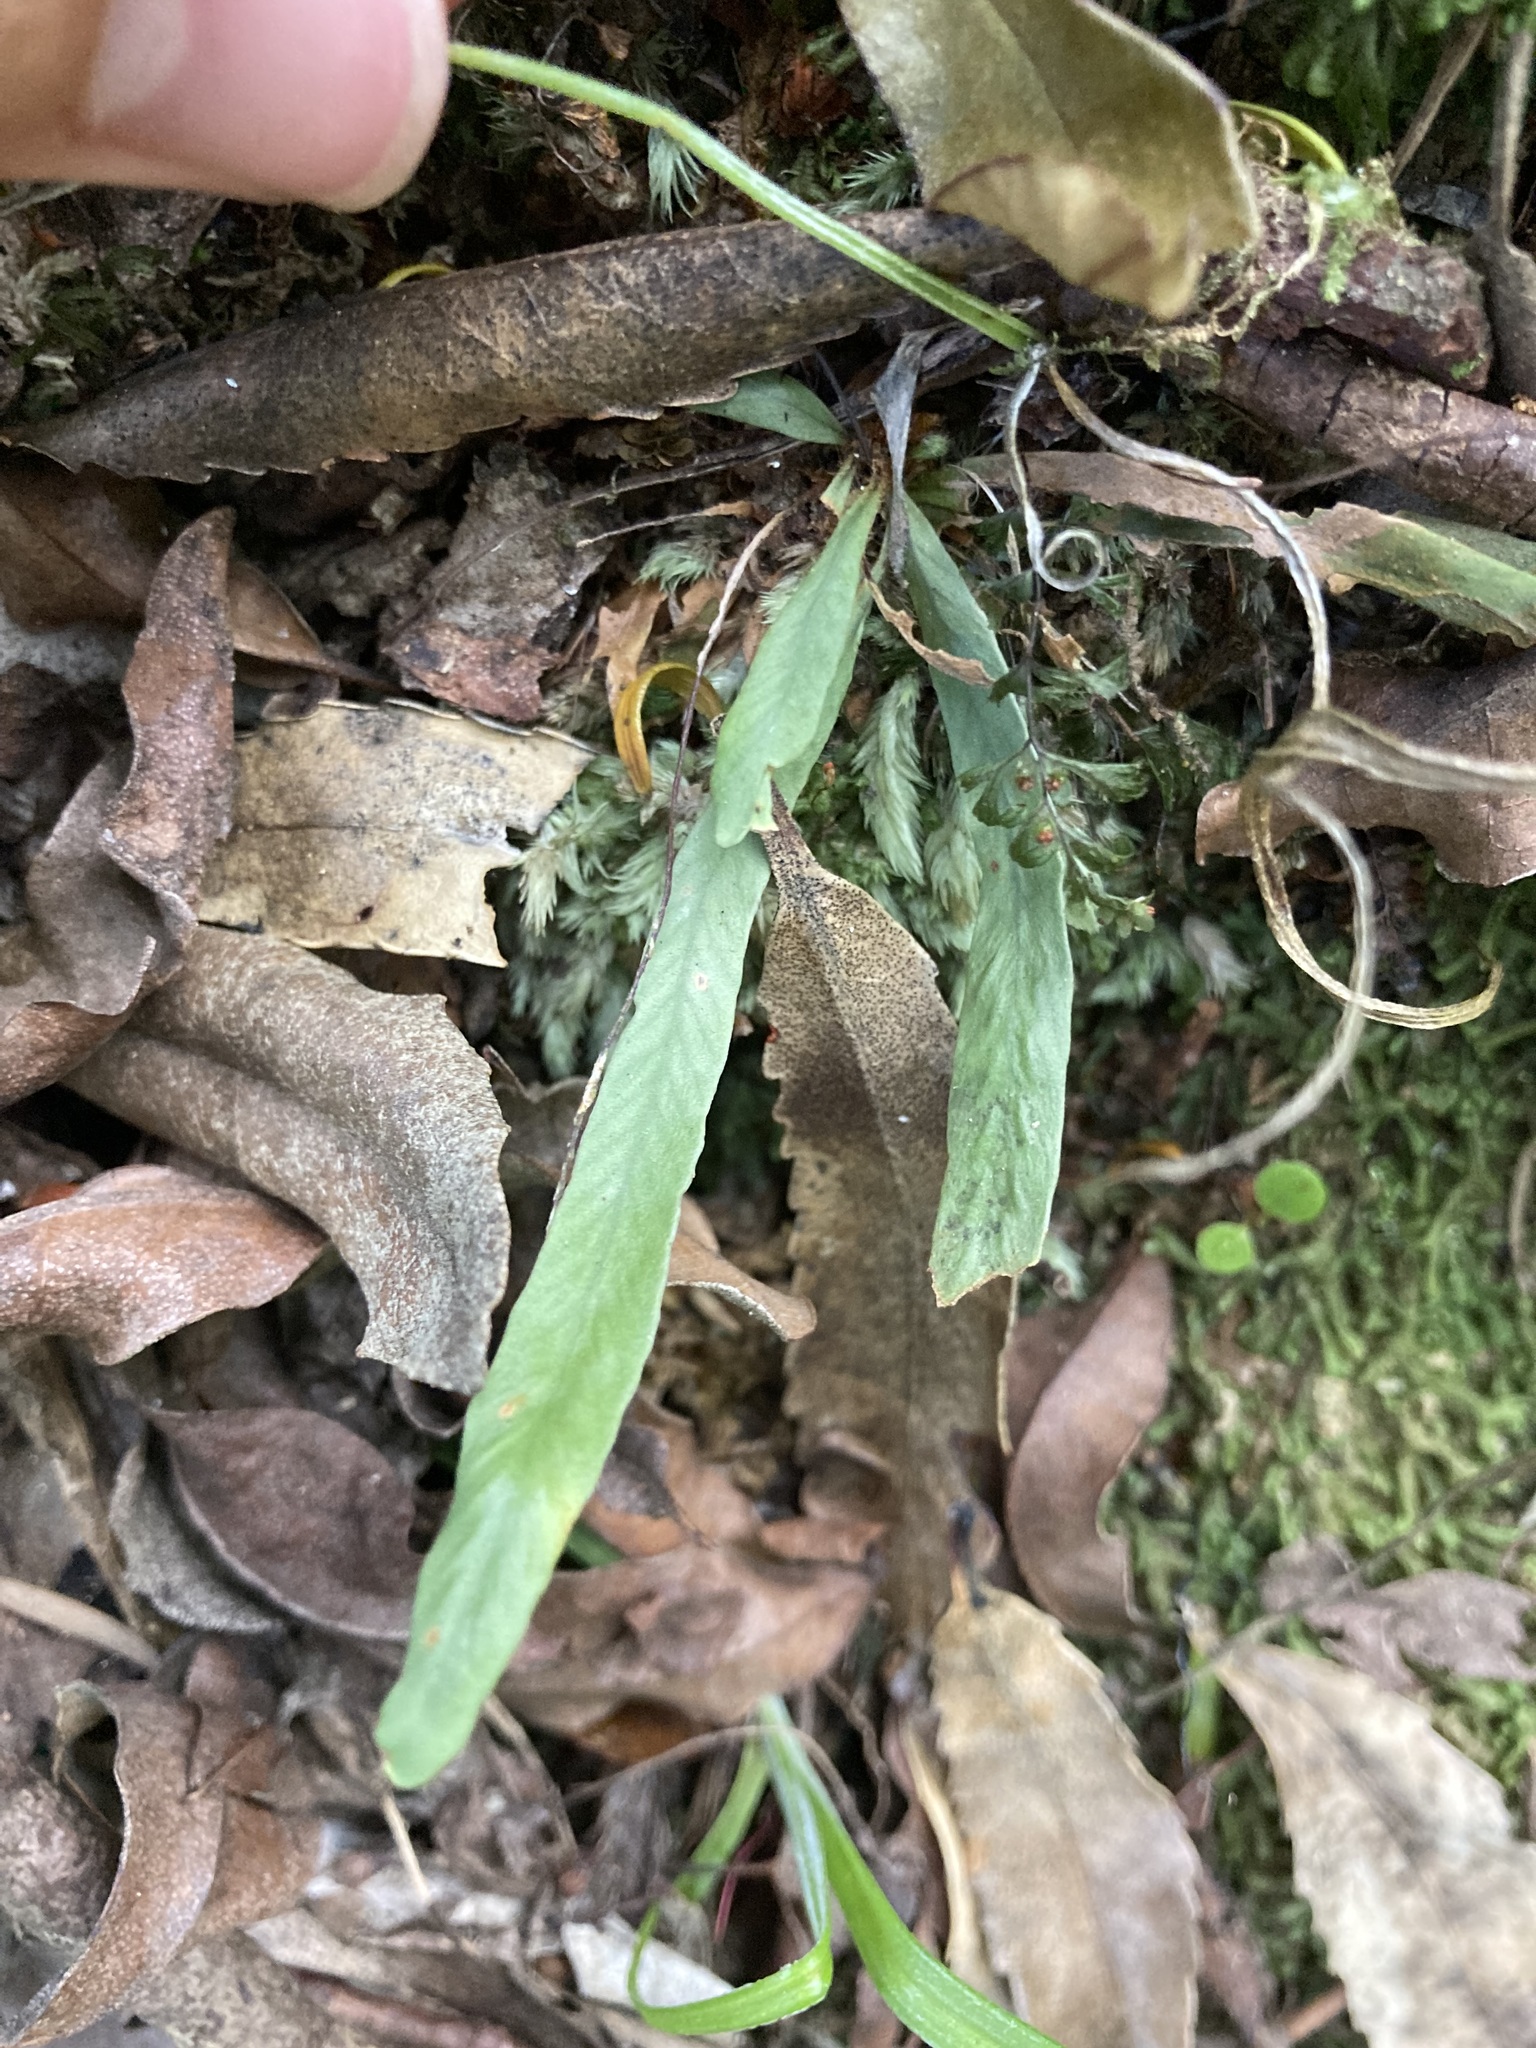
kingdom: Plantae
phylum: Tracheophyta
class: Polypodiopsida
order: Polypodiales
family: Polypodiaceae
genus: Notogrammitis
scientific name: Notogrammitis billardierei
